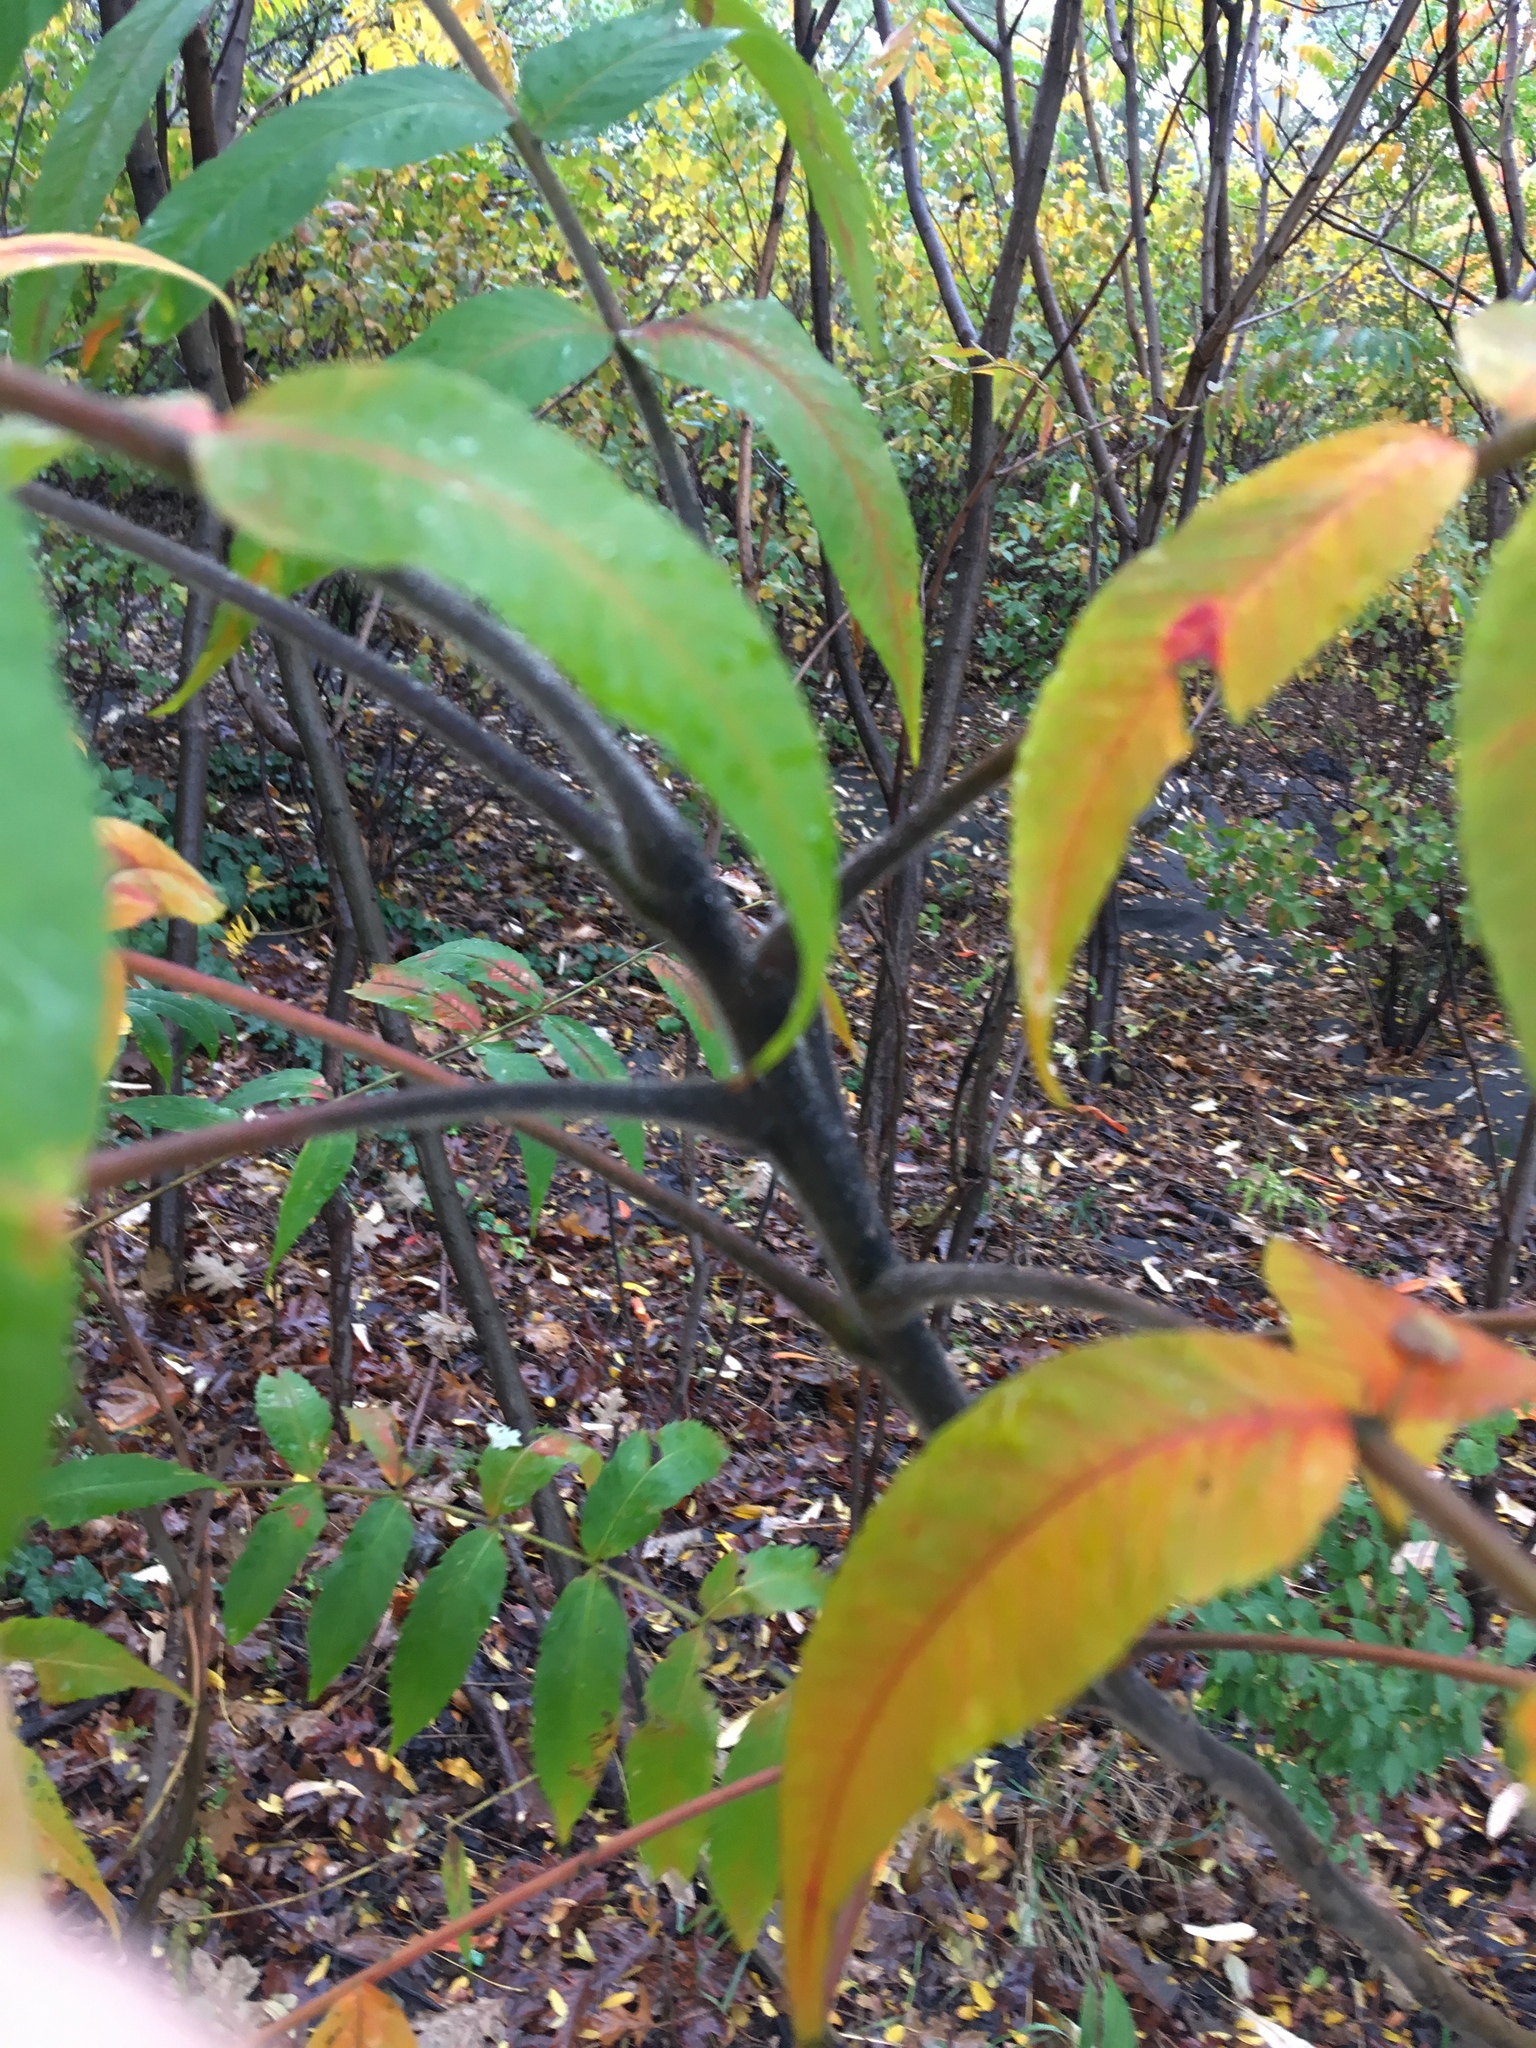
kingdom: Plantae
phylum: Tracheophyta
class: Magnoliopsida
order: Sapindales
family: Anacardiaceae
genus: Rhus
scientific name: Rhus typhina
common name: Staghorn sumac
